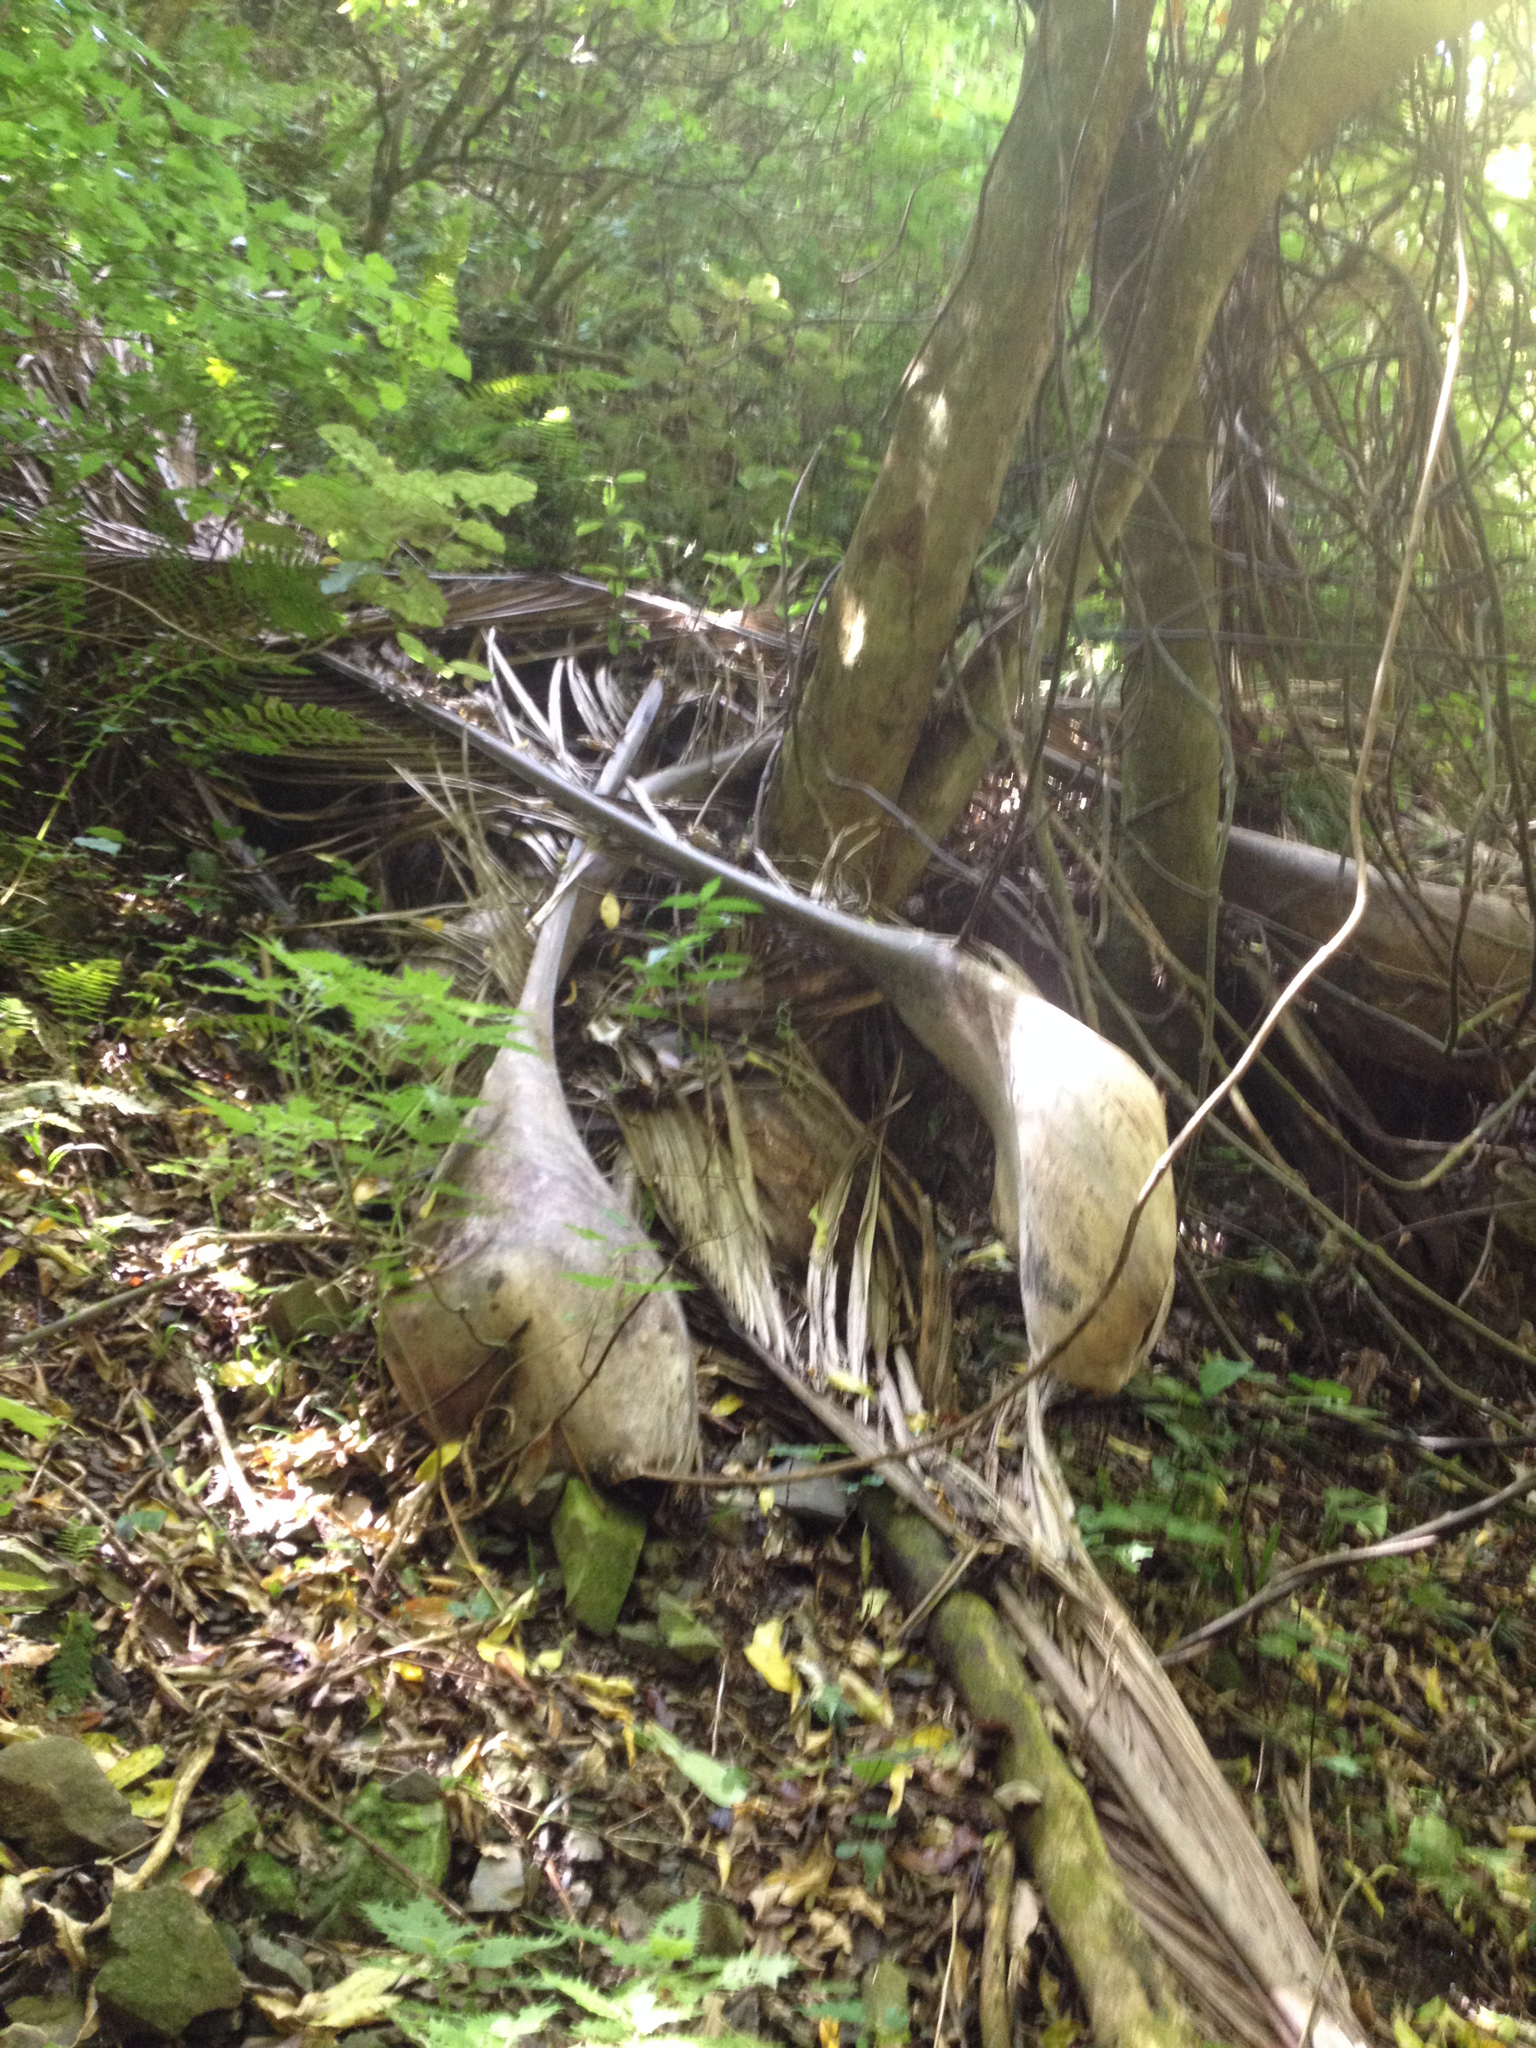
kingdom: Plantae
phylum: Tracheophyta
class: Liliopsida
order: Arecales
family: Arecaceae
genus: Rhopalostylis
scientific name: Rhopalostylis sapida
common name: Feather-duster palm
